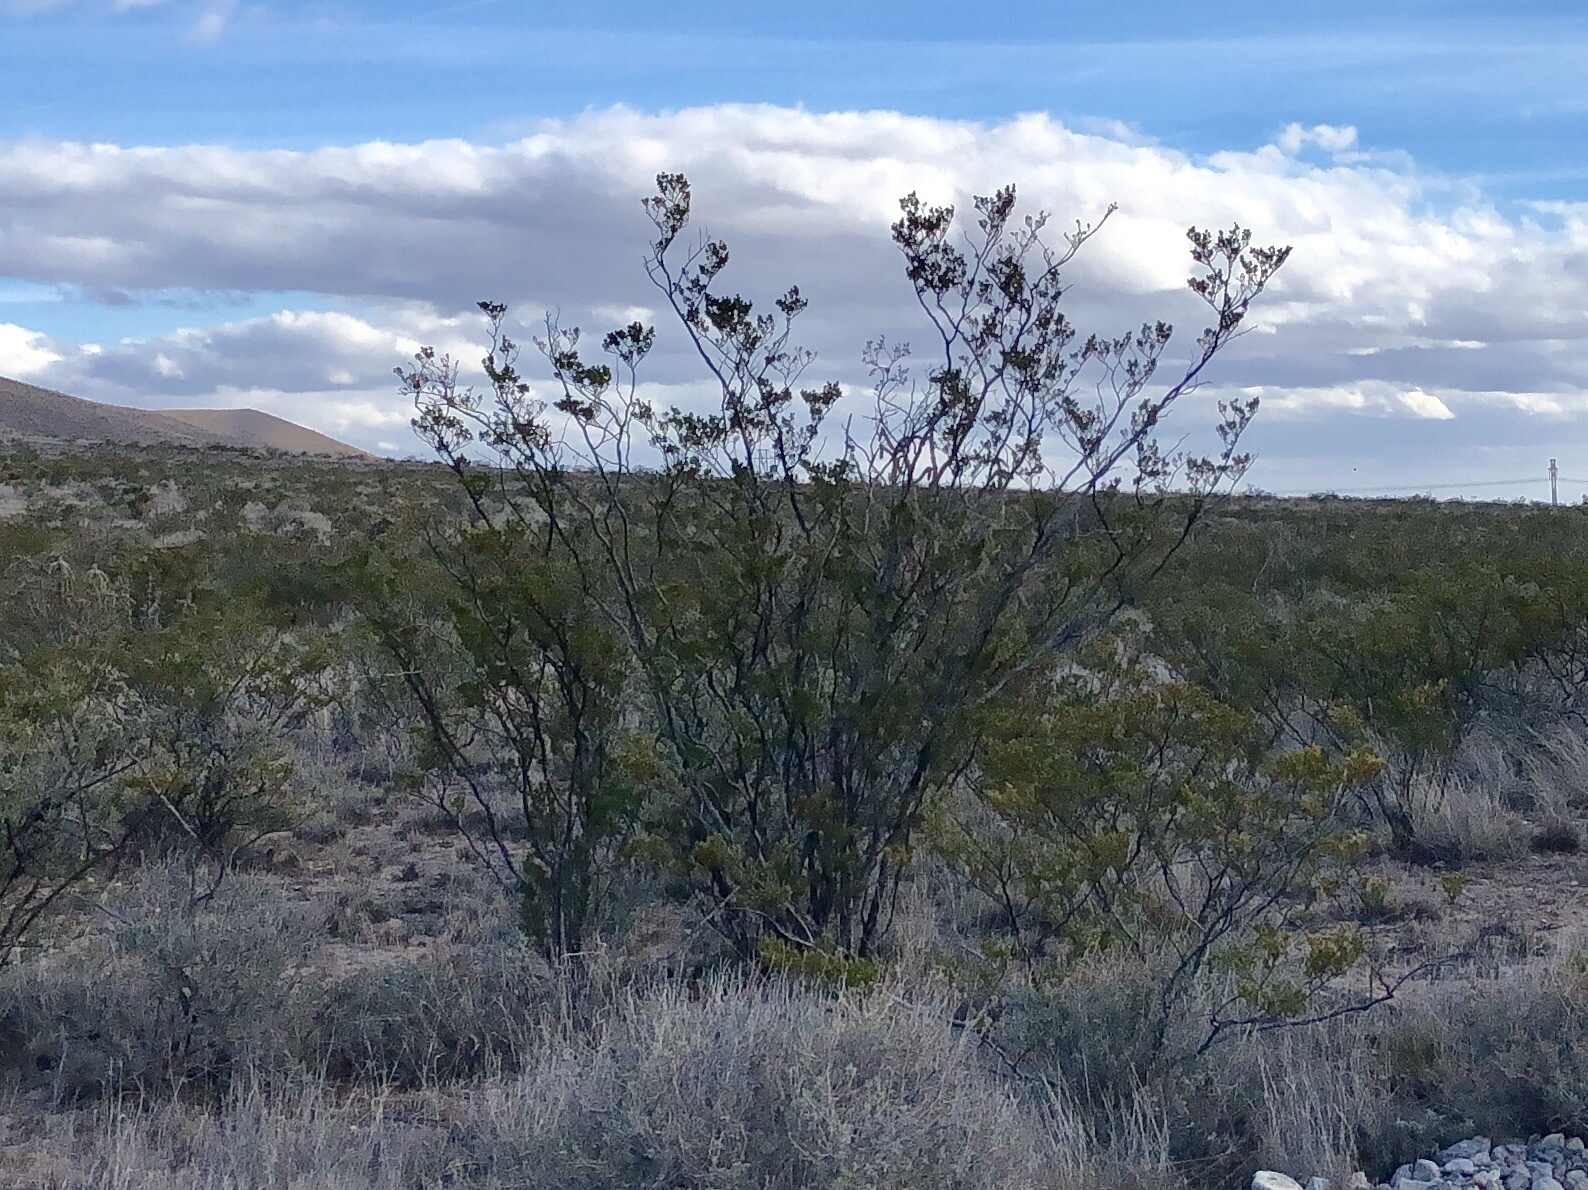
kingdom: Plantae
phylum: Tracheophyta
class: Magnoliopsida
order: Zygophyllales
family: Zygophyllaceae
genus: Larrea
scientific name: Larrea tridentata
